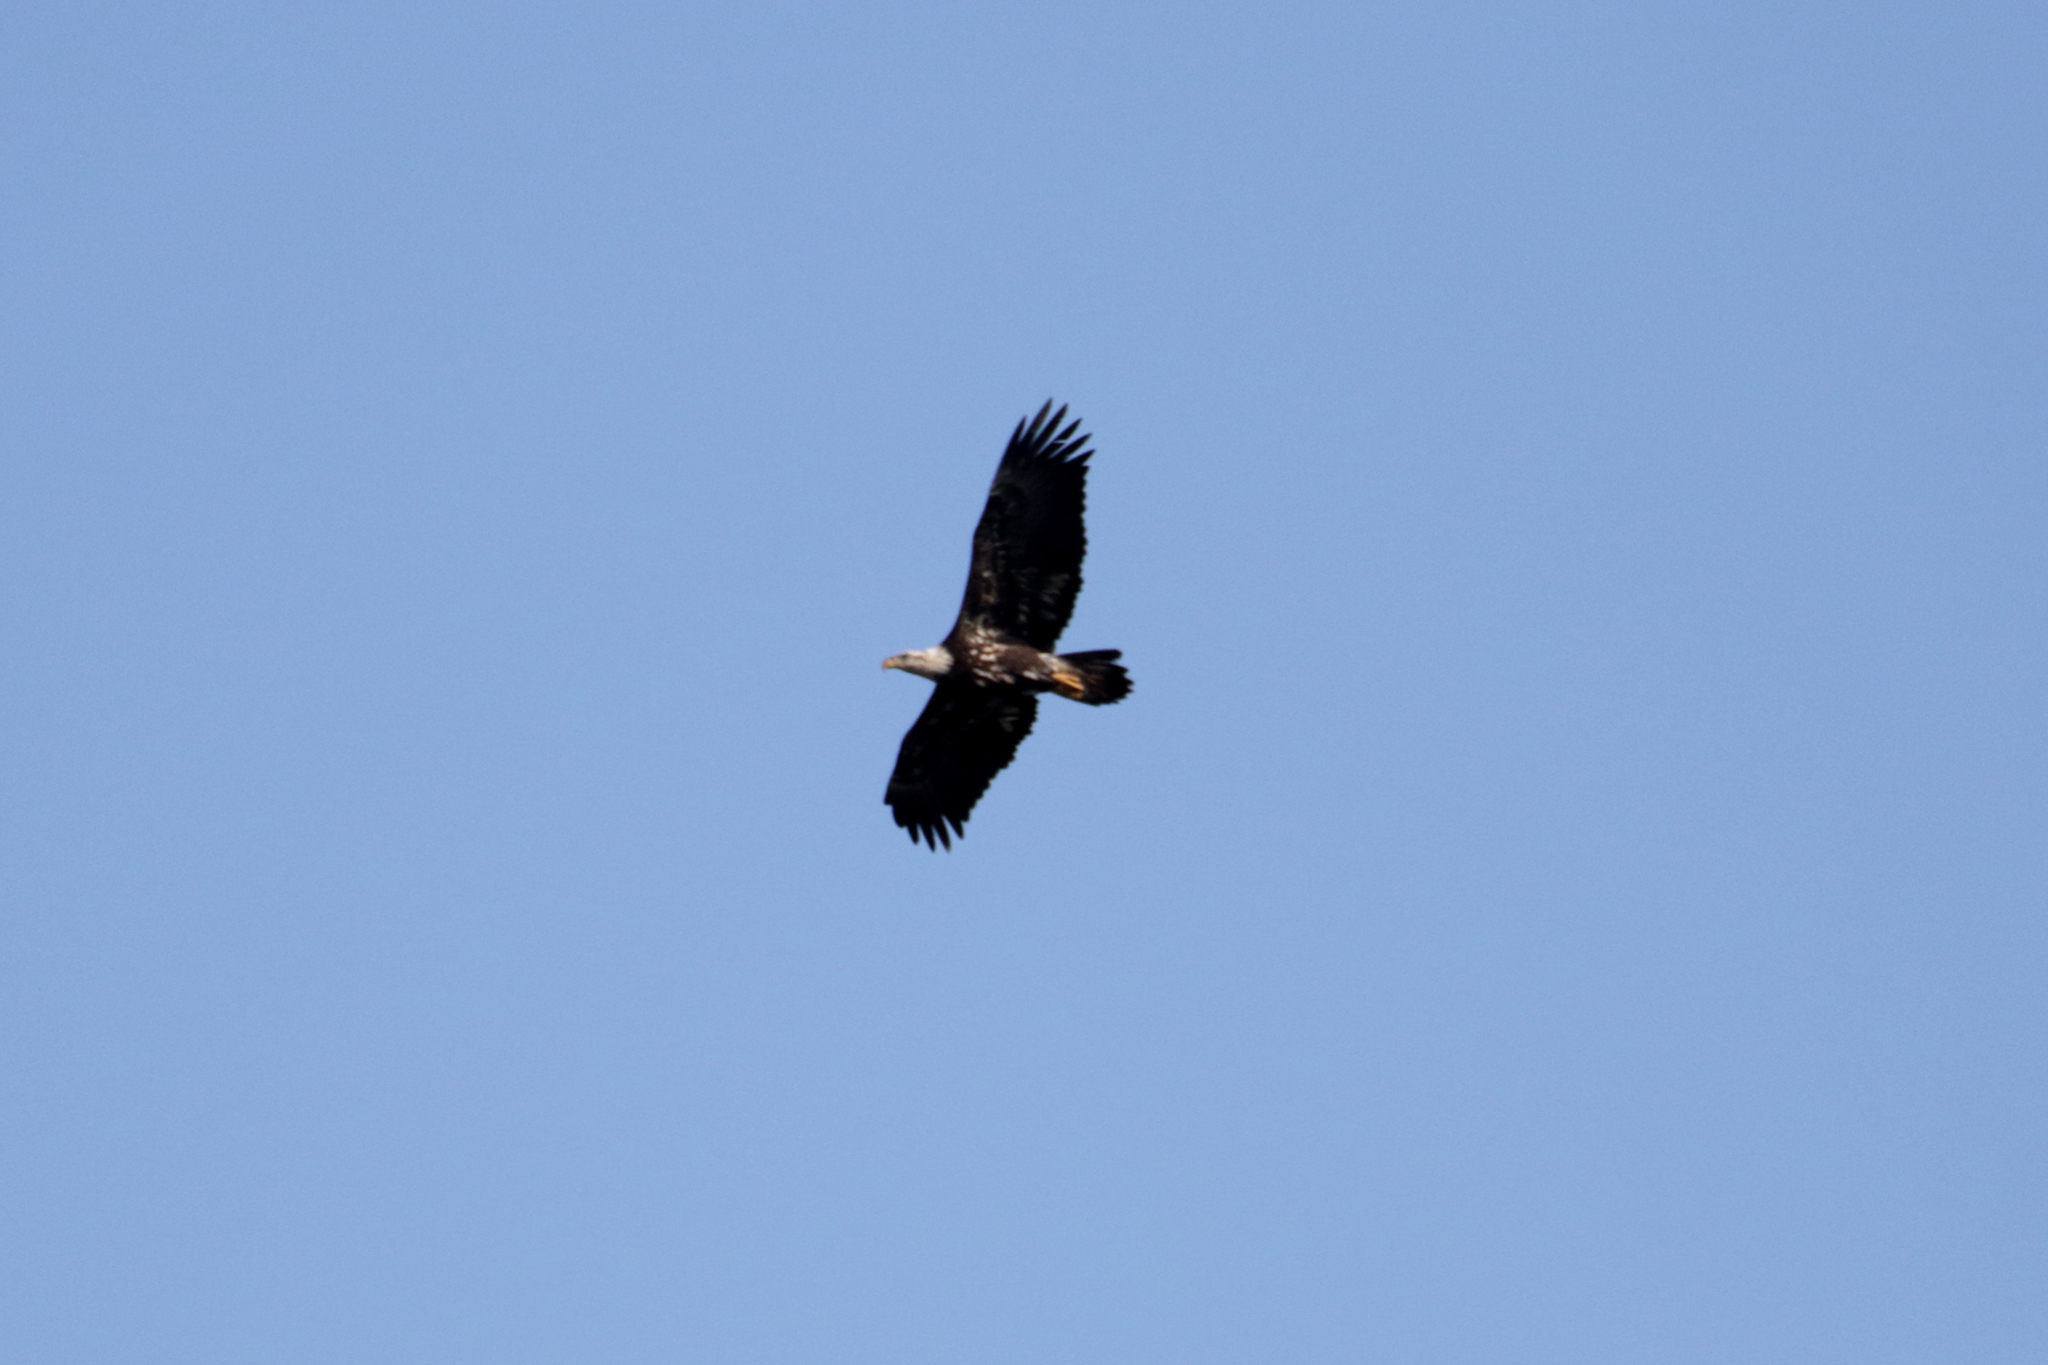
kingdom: Animalia
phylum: Chordata
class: Aves
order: Accipitriformes
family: Accipitridae
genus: Haliaeetus
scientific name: Haliaeetus leucocephalus
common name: Bald eagle
